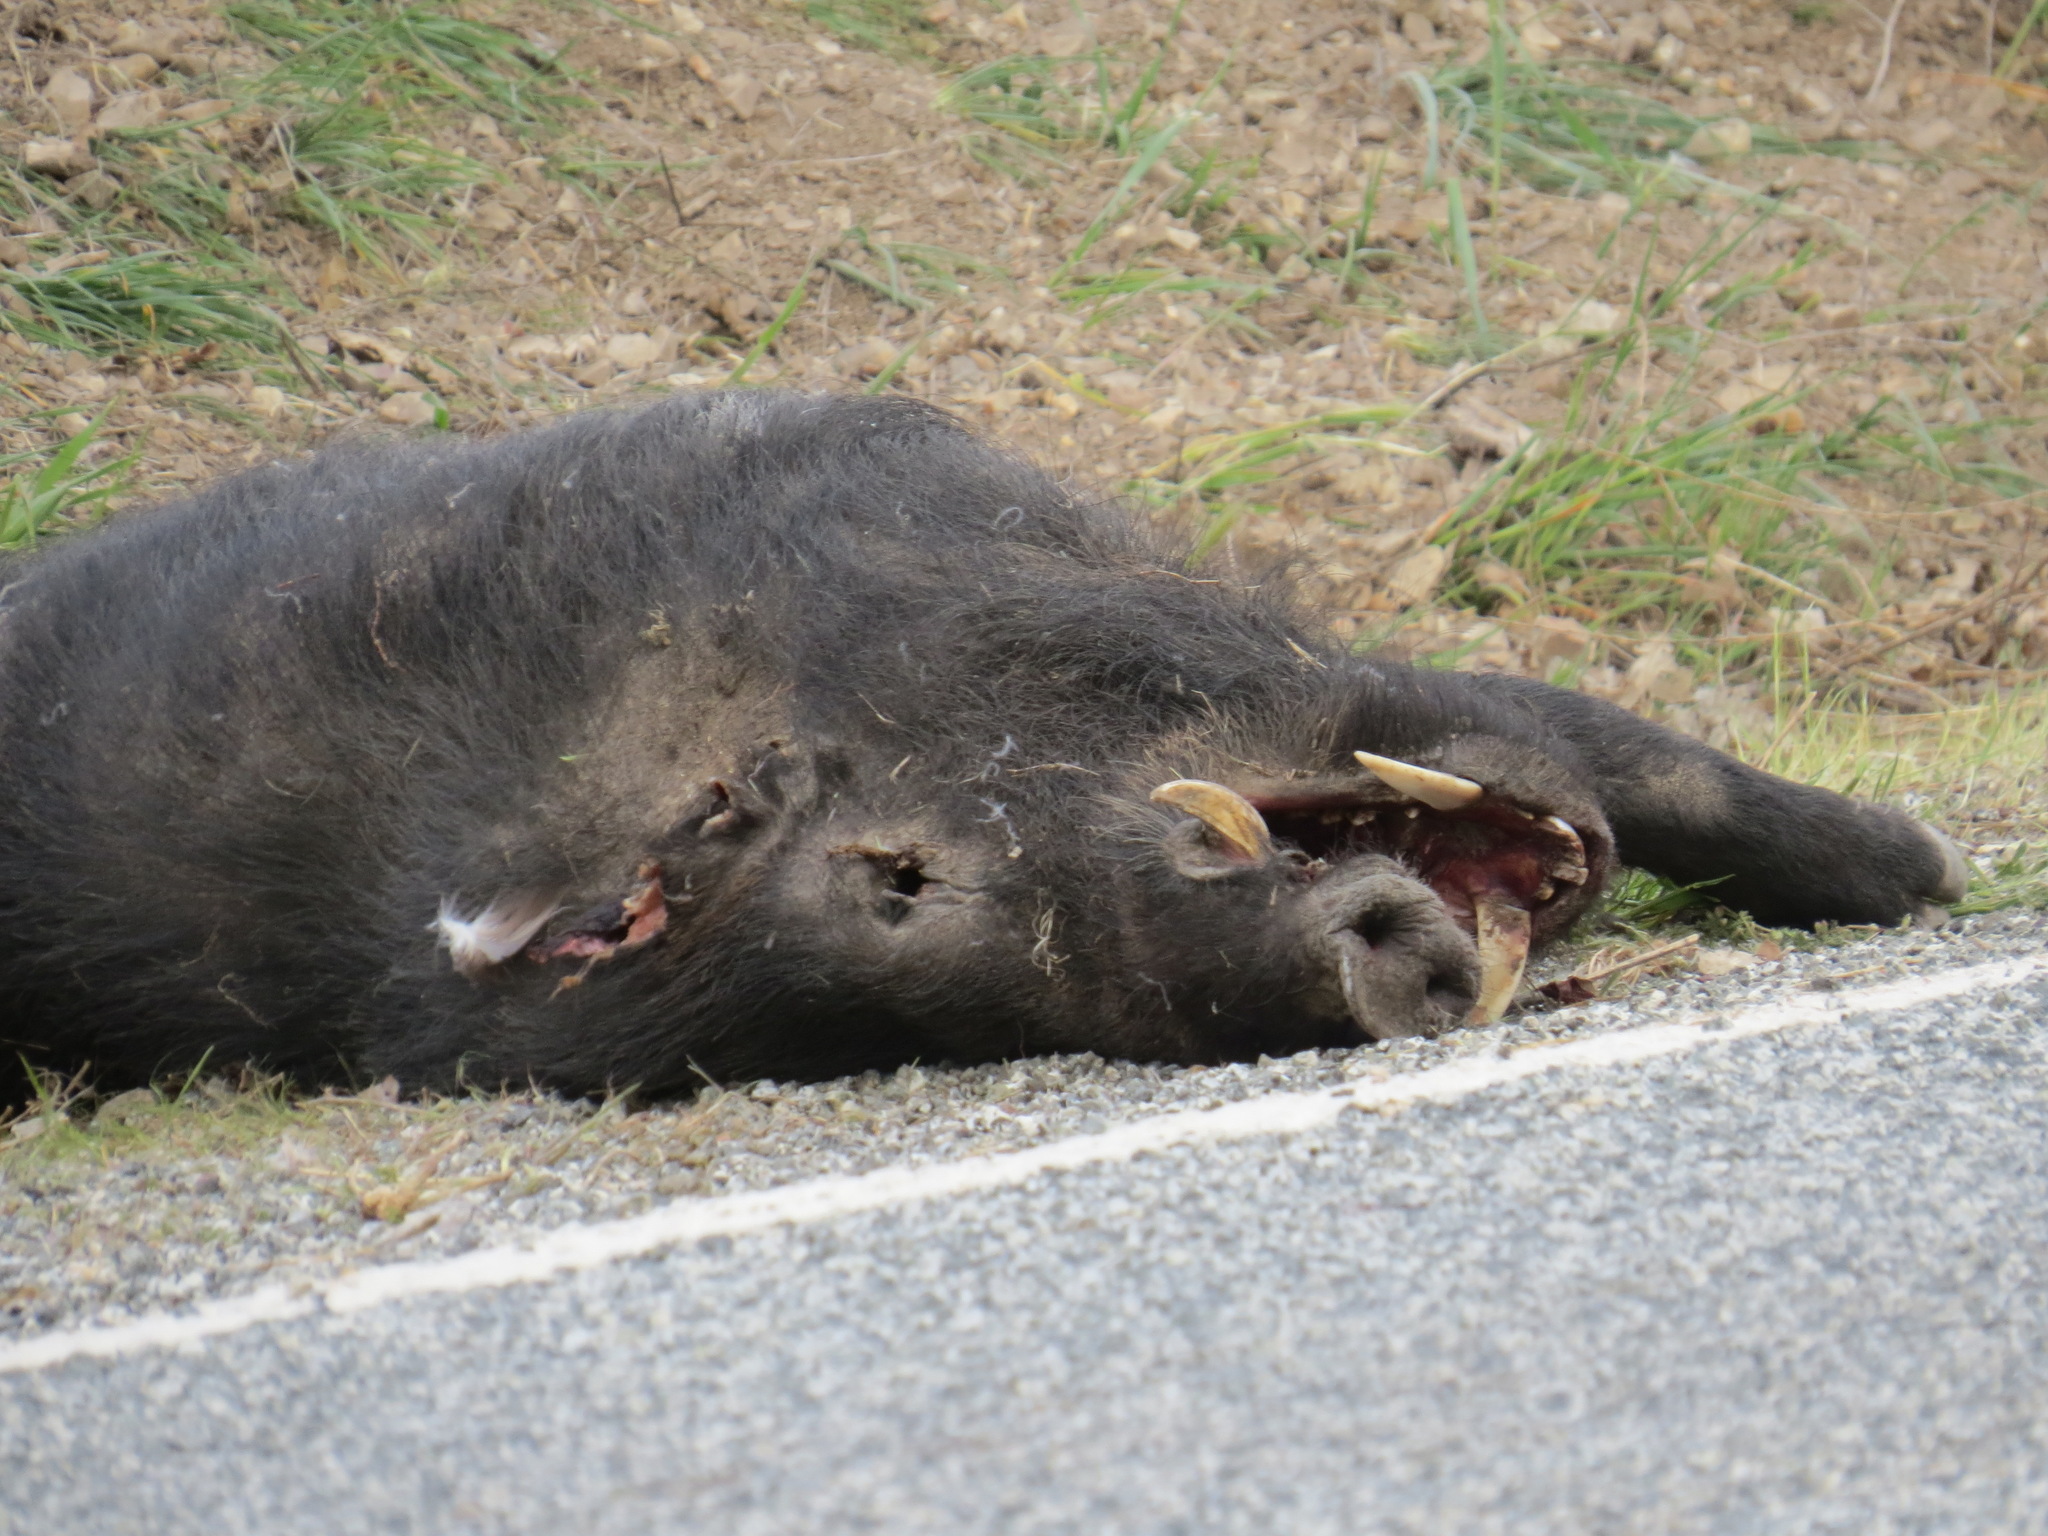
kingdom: Animalia
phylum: Chordata
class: Mammalia
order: Artiodactyla
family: Suidae
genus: Sus
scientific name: Sus scrofa
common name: Wild boar
